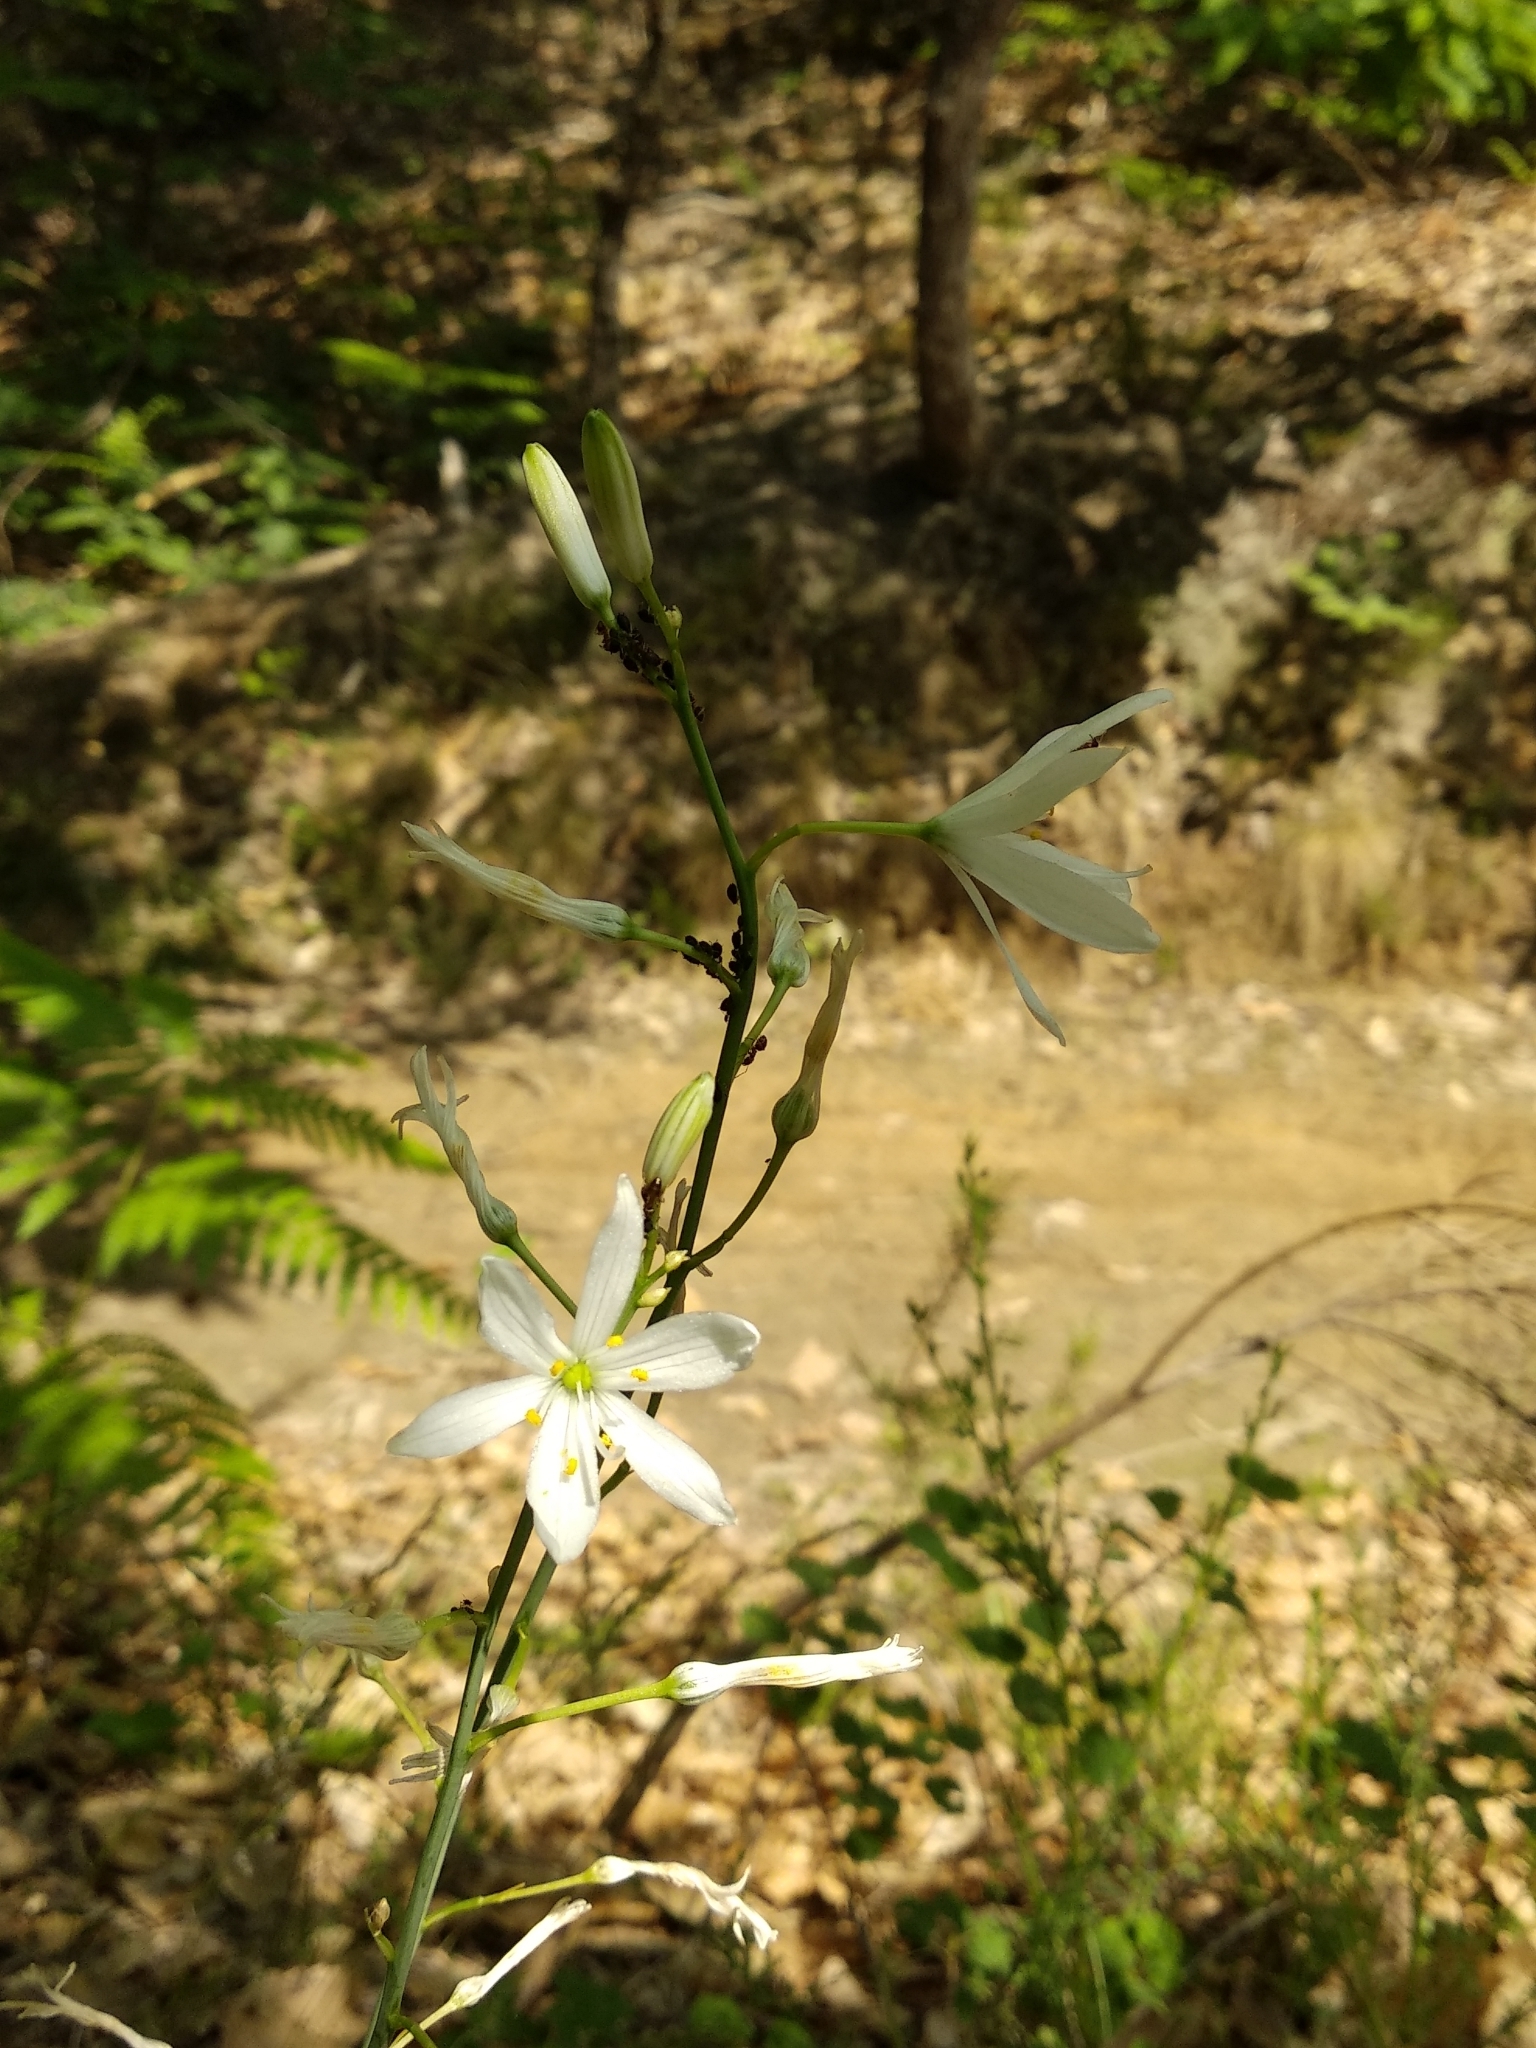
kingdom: Plantae
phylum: Tracheophyta
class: Liliopsida
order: Asparagales
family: Asparagaceae
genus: Anthericum
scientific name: Anthericum liliago
